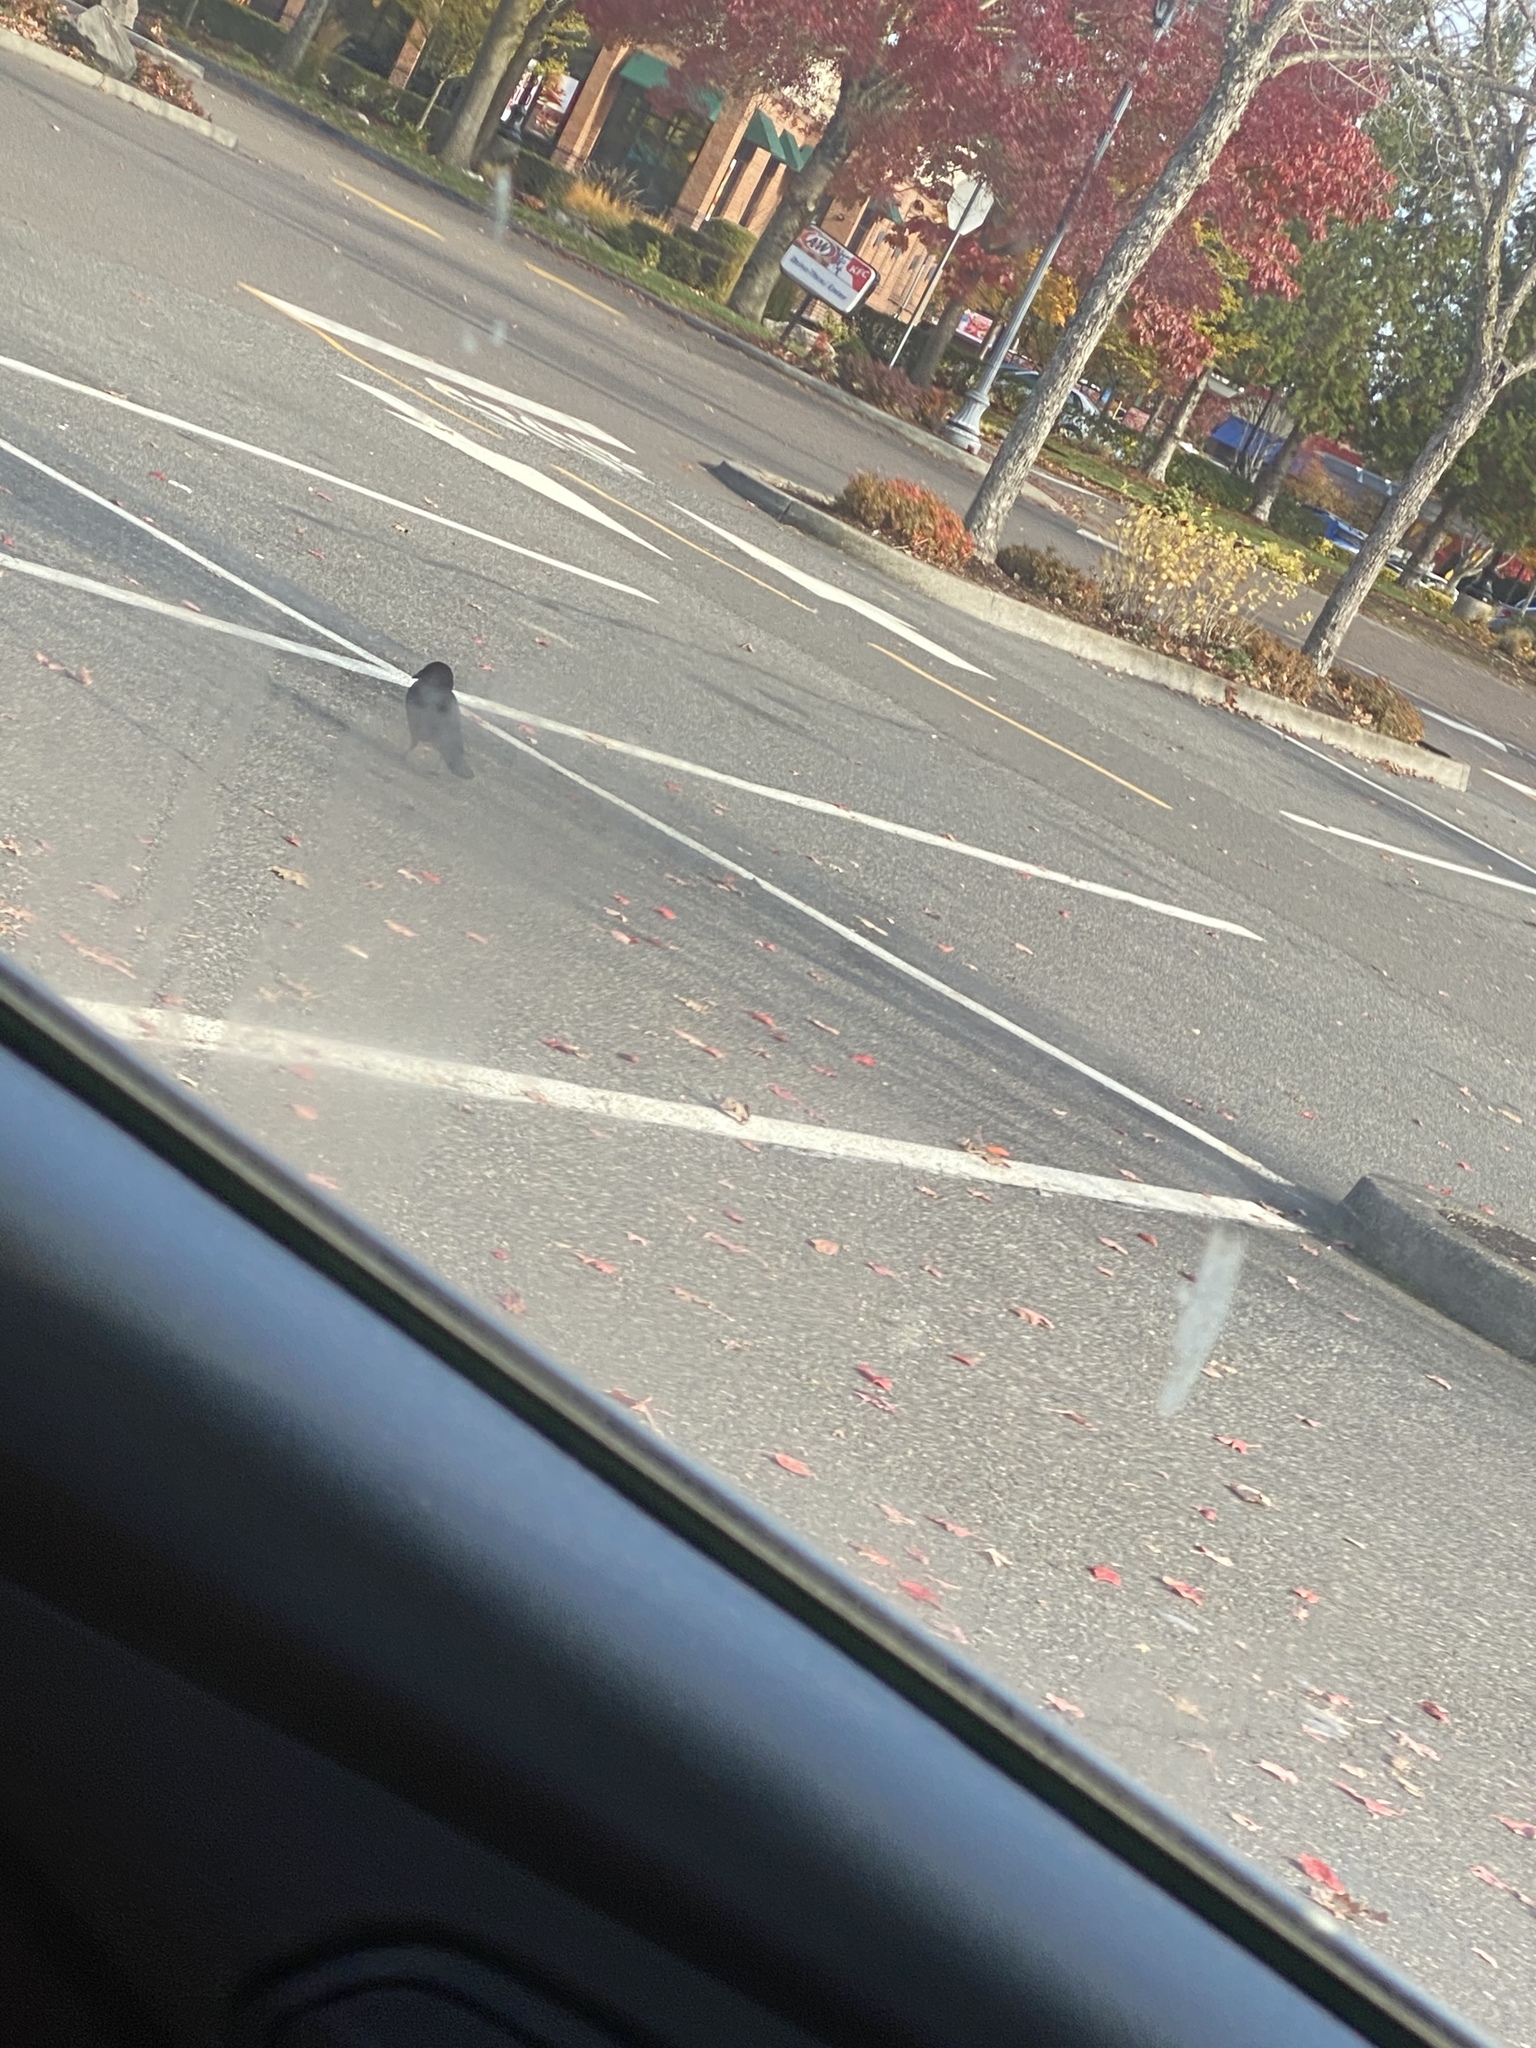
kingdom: Animalia
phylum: Chordata
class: Aves
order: Passeriformes
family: Corvidae
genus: Corvus
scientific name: Corvus brachyrhynchos
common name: American crow
